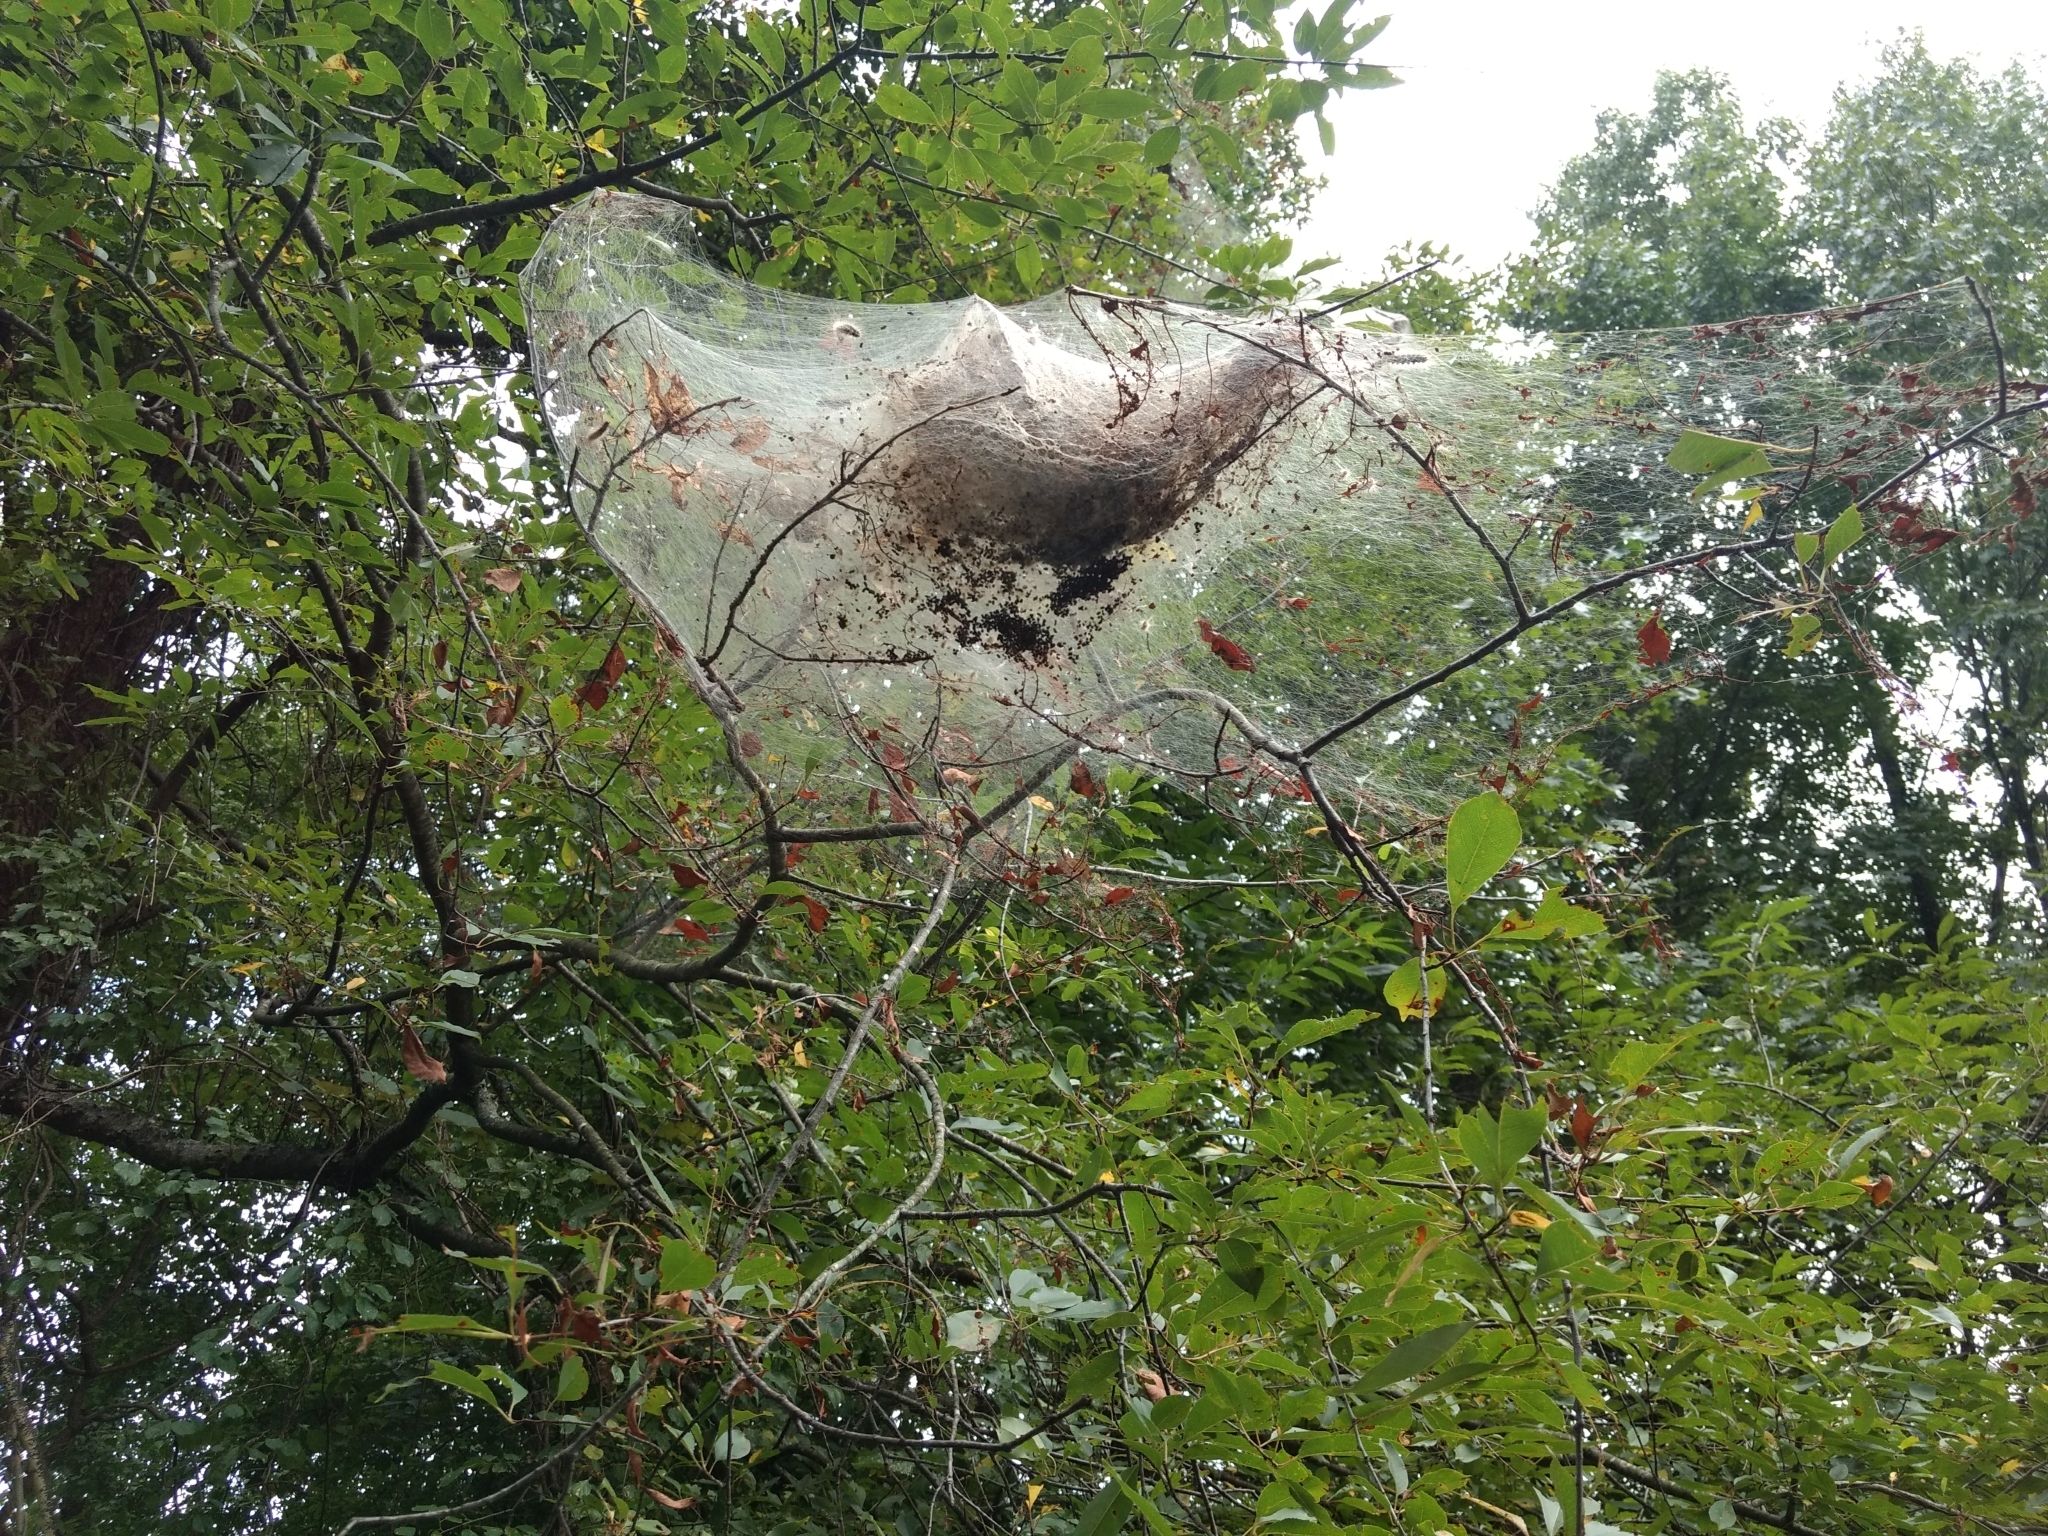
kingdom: Animalia
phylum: Arthropoda
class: Insecta
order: Lepidoptera
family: Erebidae
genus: Hyphantria
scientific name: Hyphantria cunea
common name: American white moth
